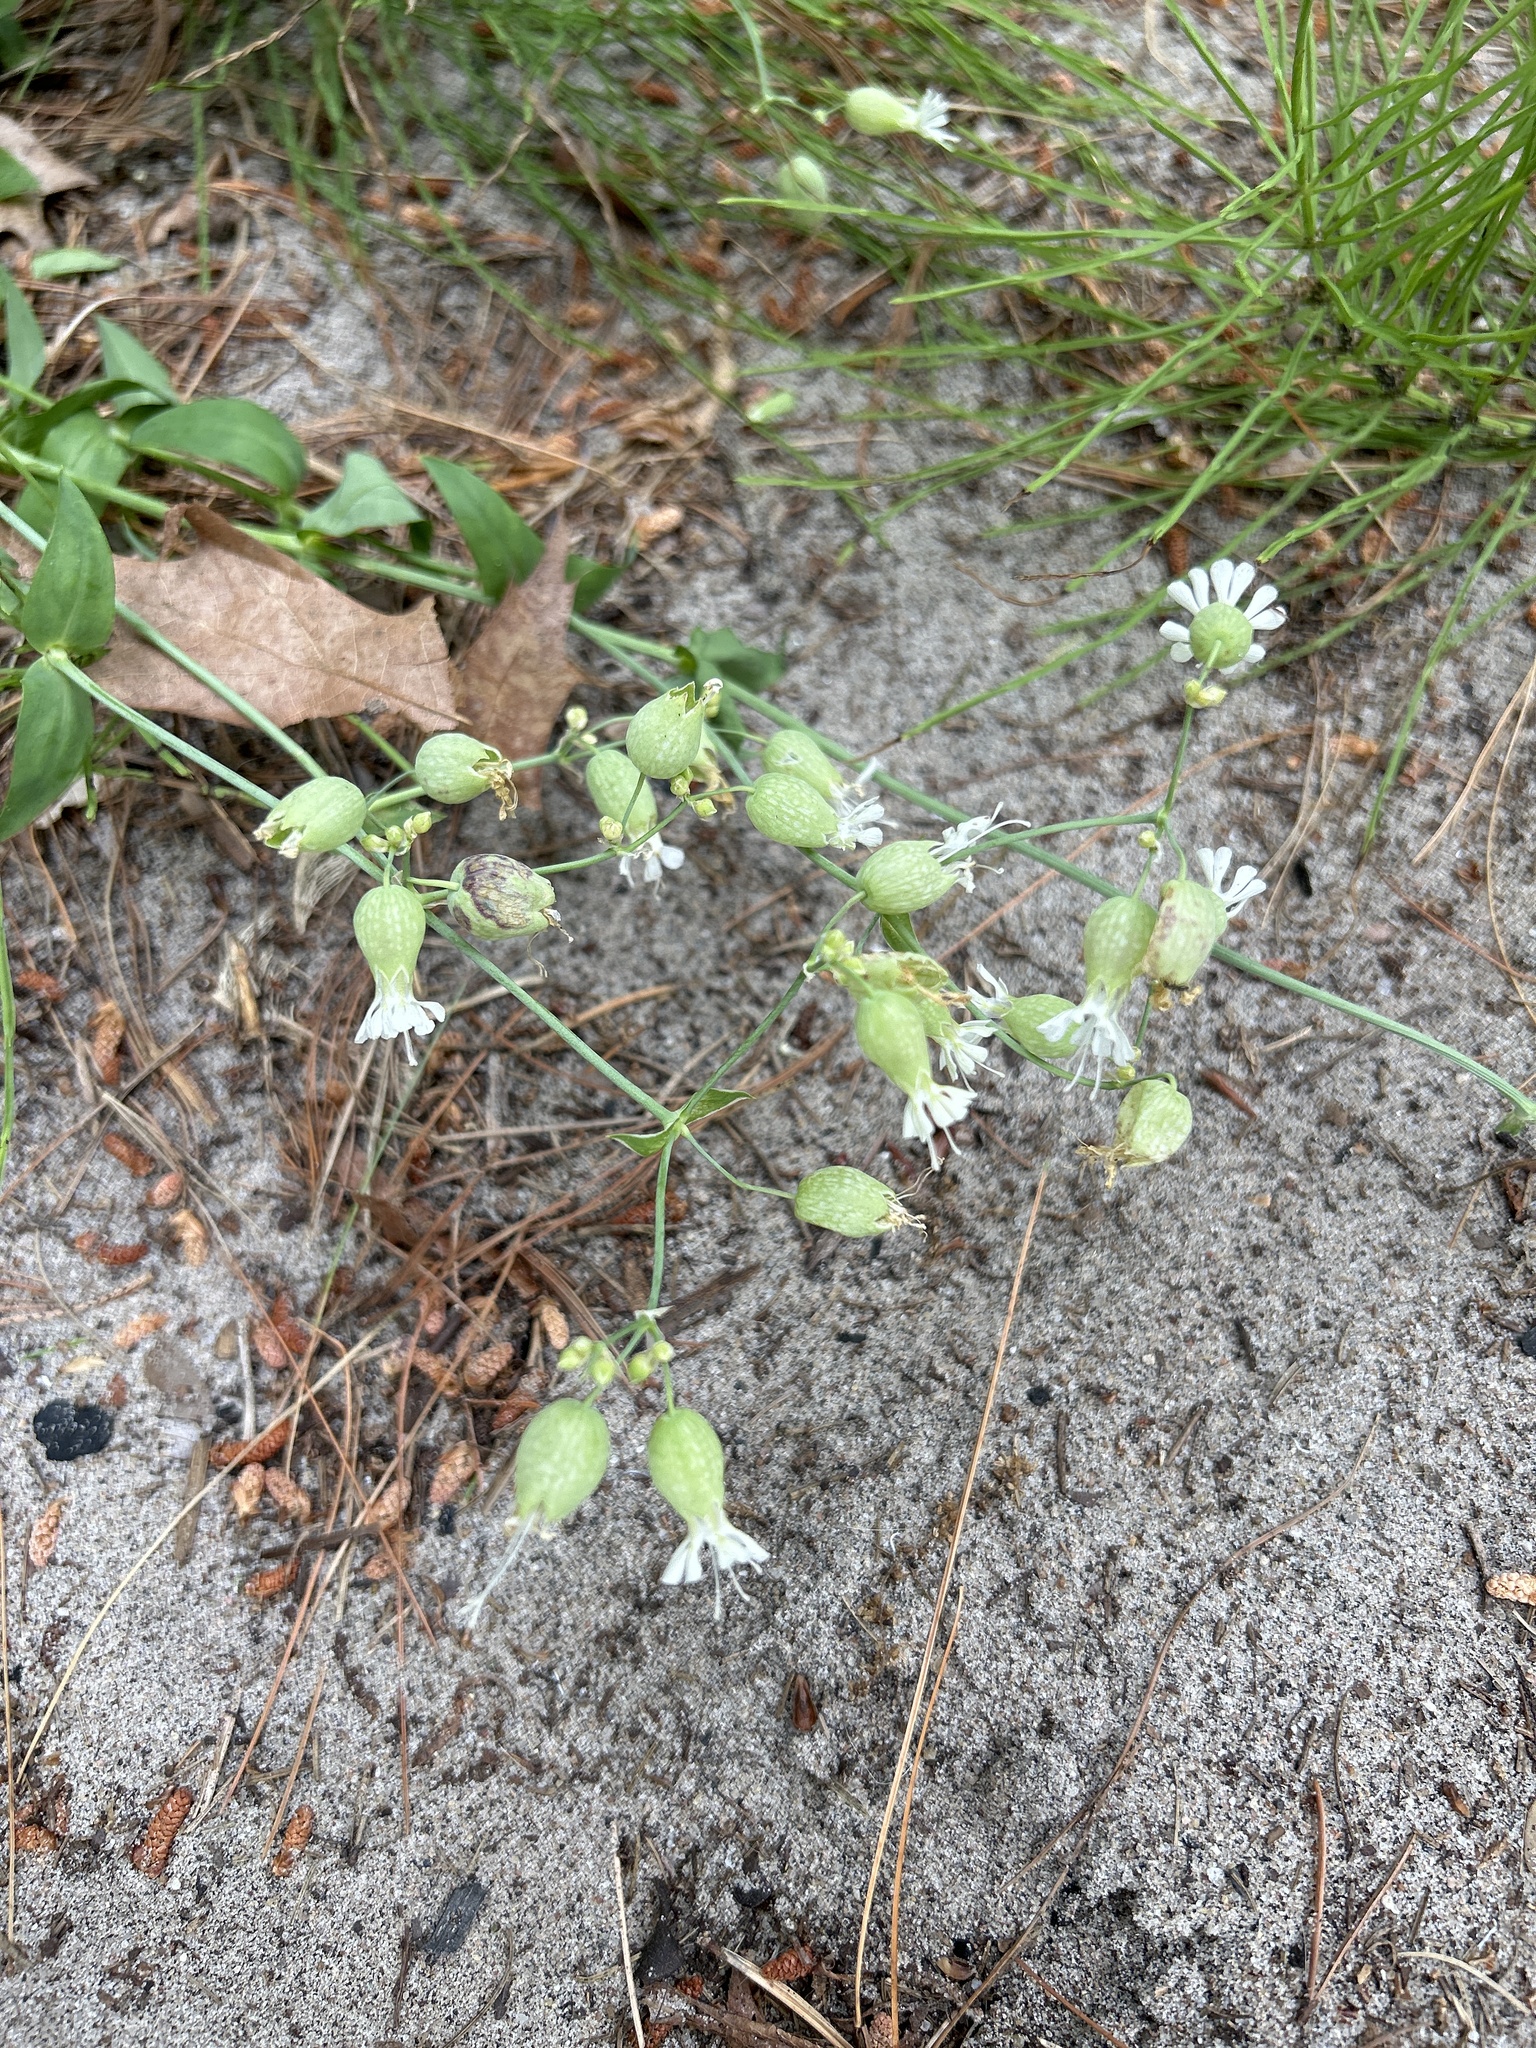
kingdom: Plantae
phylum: Tracheophyta
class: Magnoliopsida
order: Caryophyllales
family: Caryophyllaceae
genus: Silene
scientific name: Silene vulgaris
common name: Bladder campion
